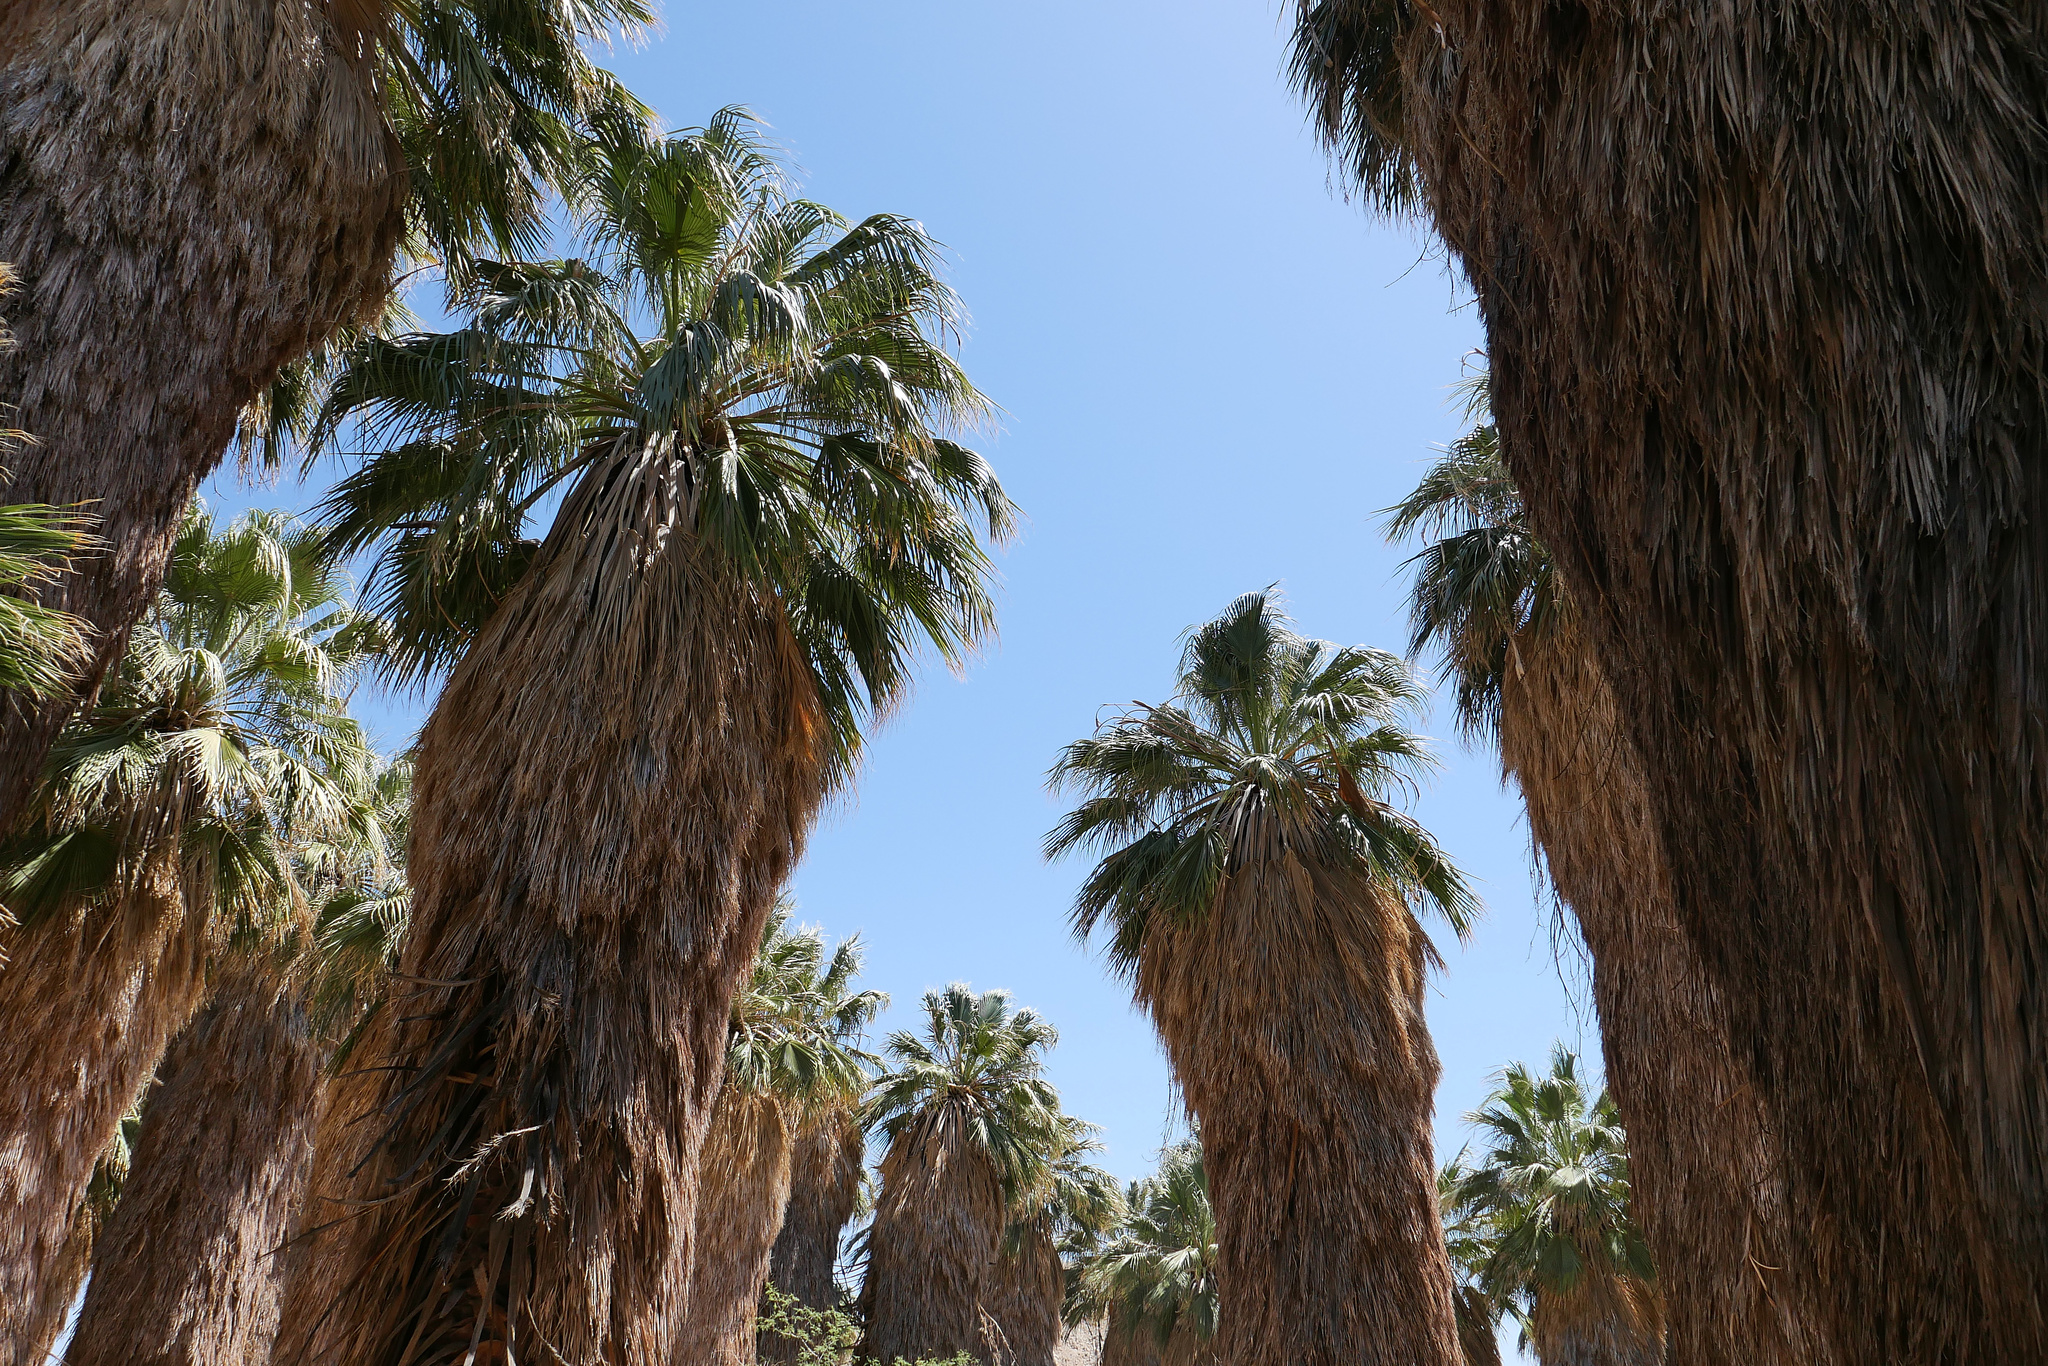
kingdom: Plantae
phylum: Tracheophyta
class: Liliopsida
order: Arecales
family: Arecaceae
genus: Washingtonia
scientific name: Washingtonia filifera
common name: California fan palm
